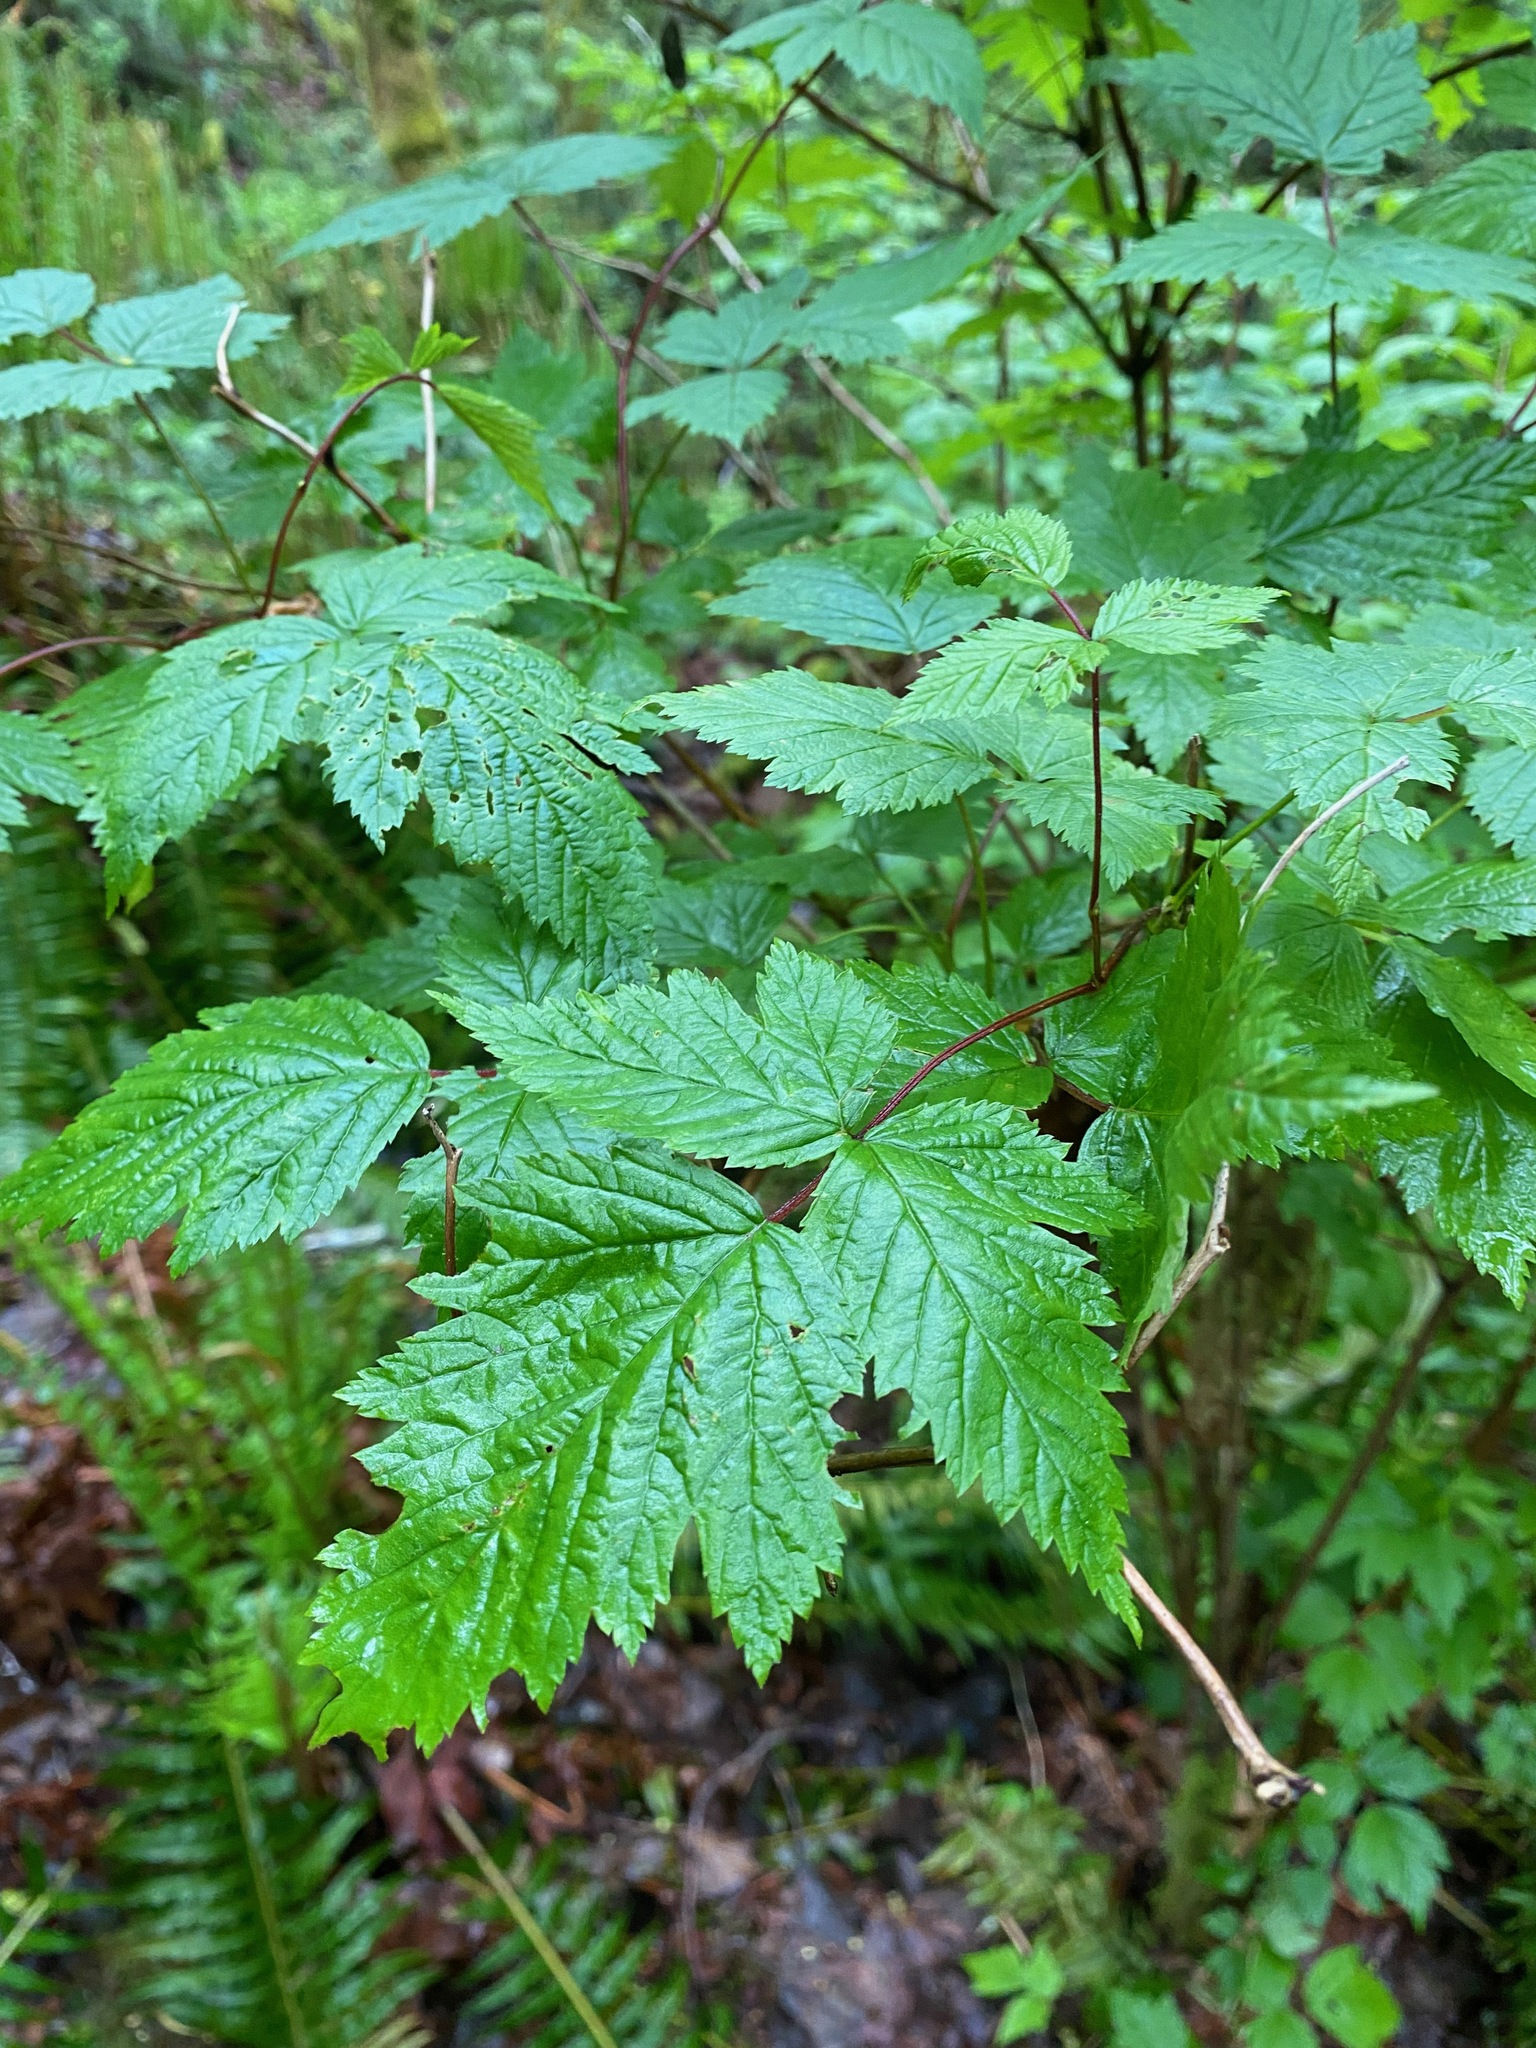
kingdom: Plantae
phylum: Tracheophyta
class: Magnoliopsida
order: Rosales
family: Rosaceae
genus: Rubus
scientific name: Rubus spectabilis
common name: Salmonberry
